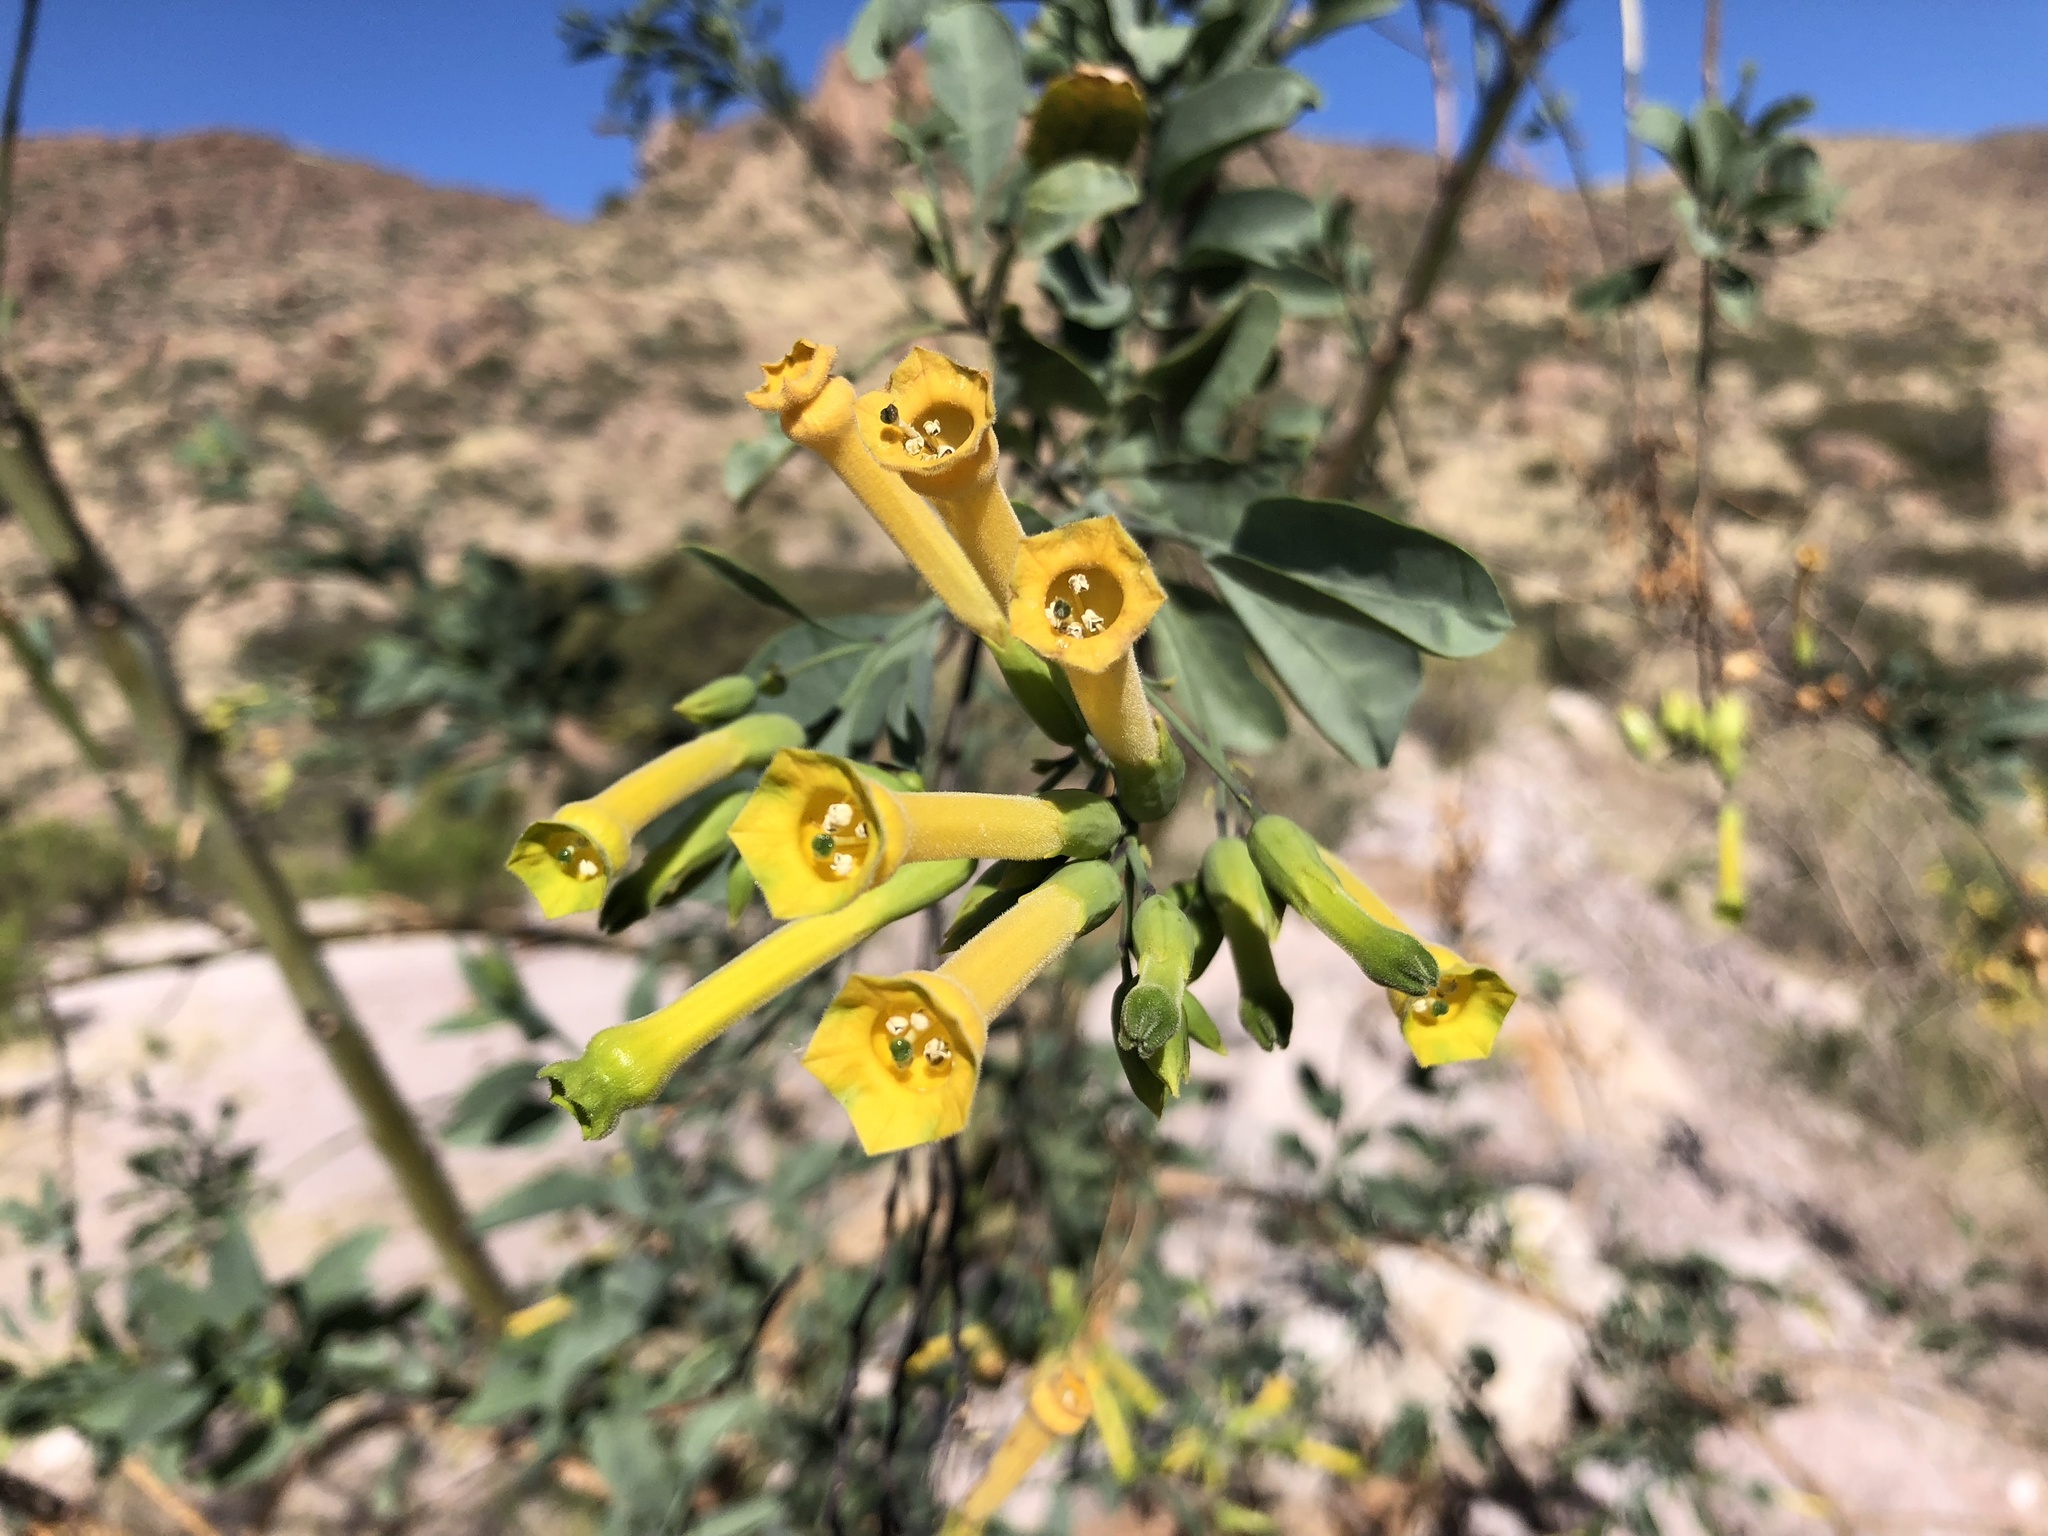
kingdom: Plantae
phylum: Tracheophyta
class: Magnoliopsida
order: Solanales
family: Solanaceae
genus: Nicotiana
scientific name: Nicotiana glauca
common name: Tree tobacco
